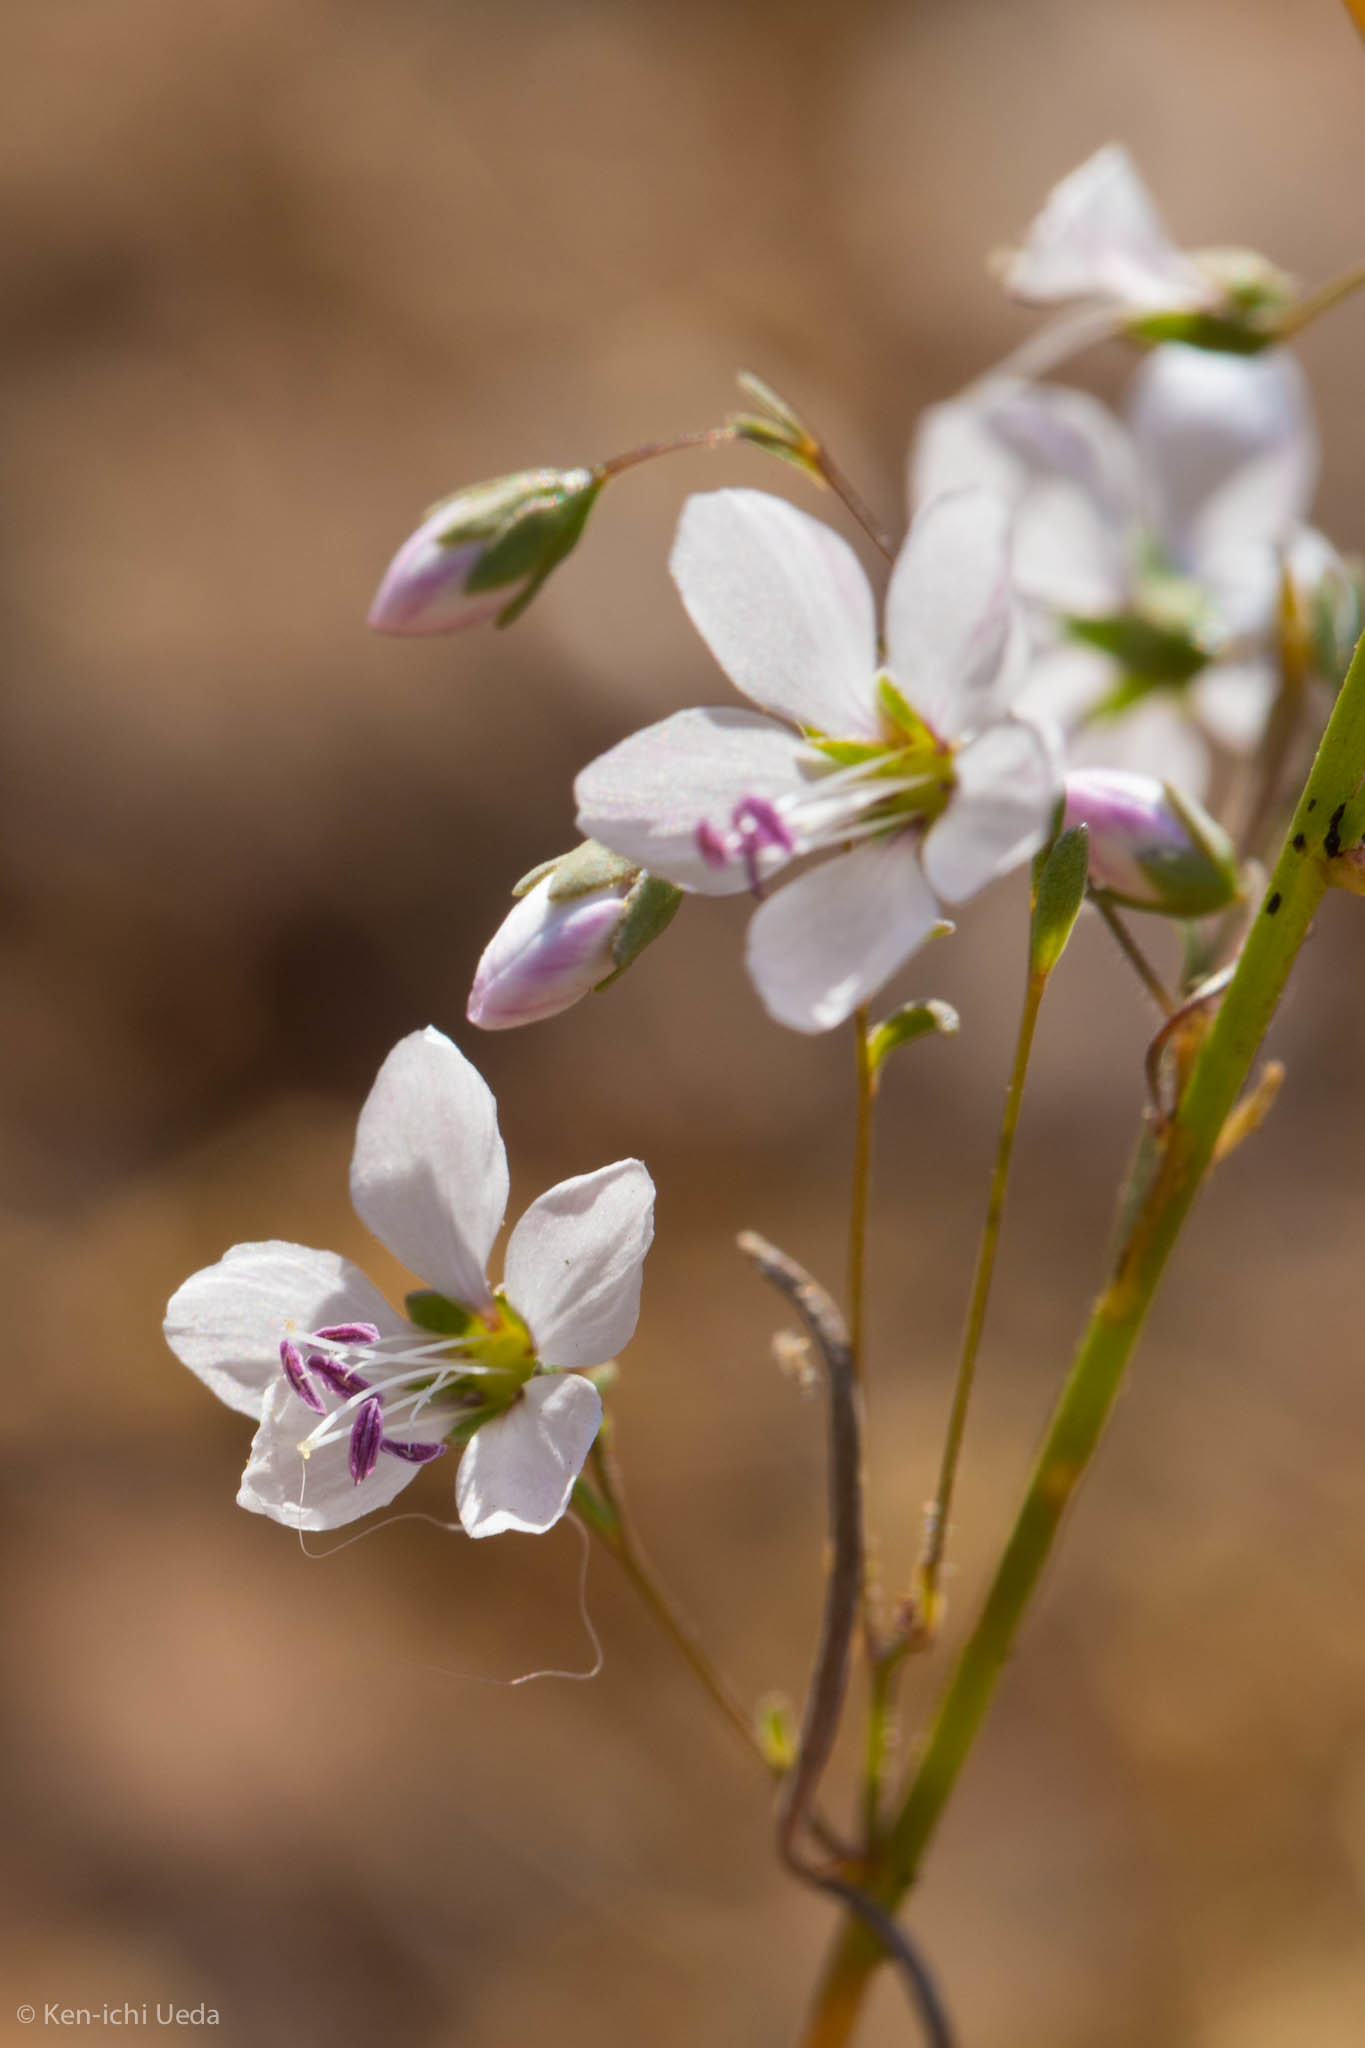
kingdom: Plantae
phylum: Tracheophyta
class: Magnoliopsida
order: Malpighiales
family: Linaceae
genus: Hesperolinon
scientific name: Hesperolinon spergulinum
